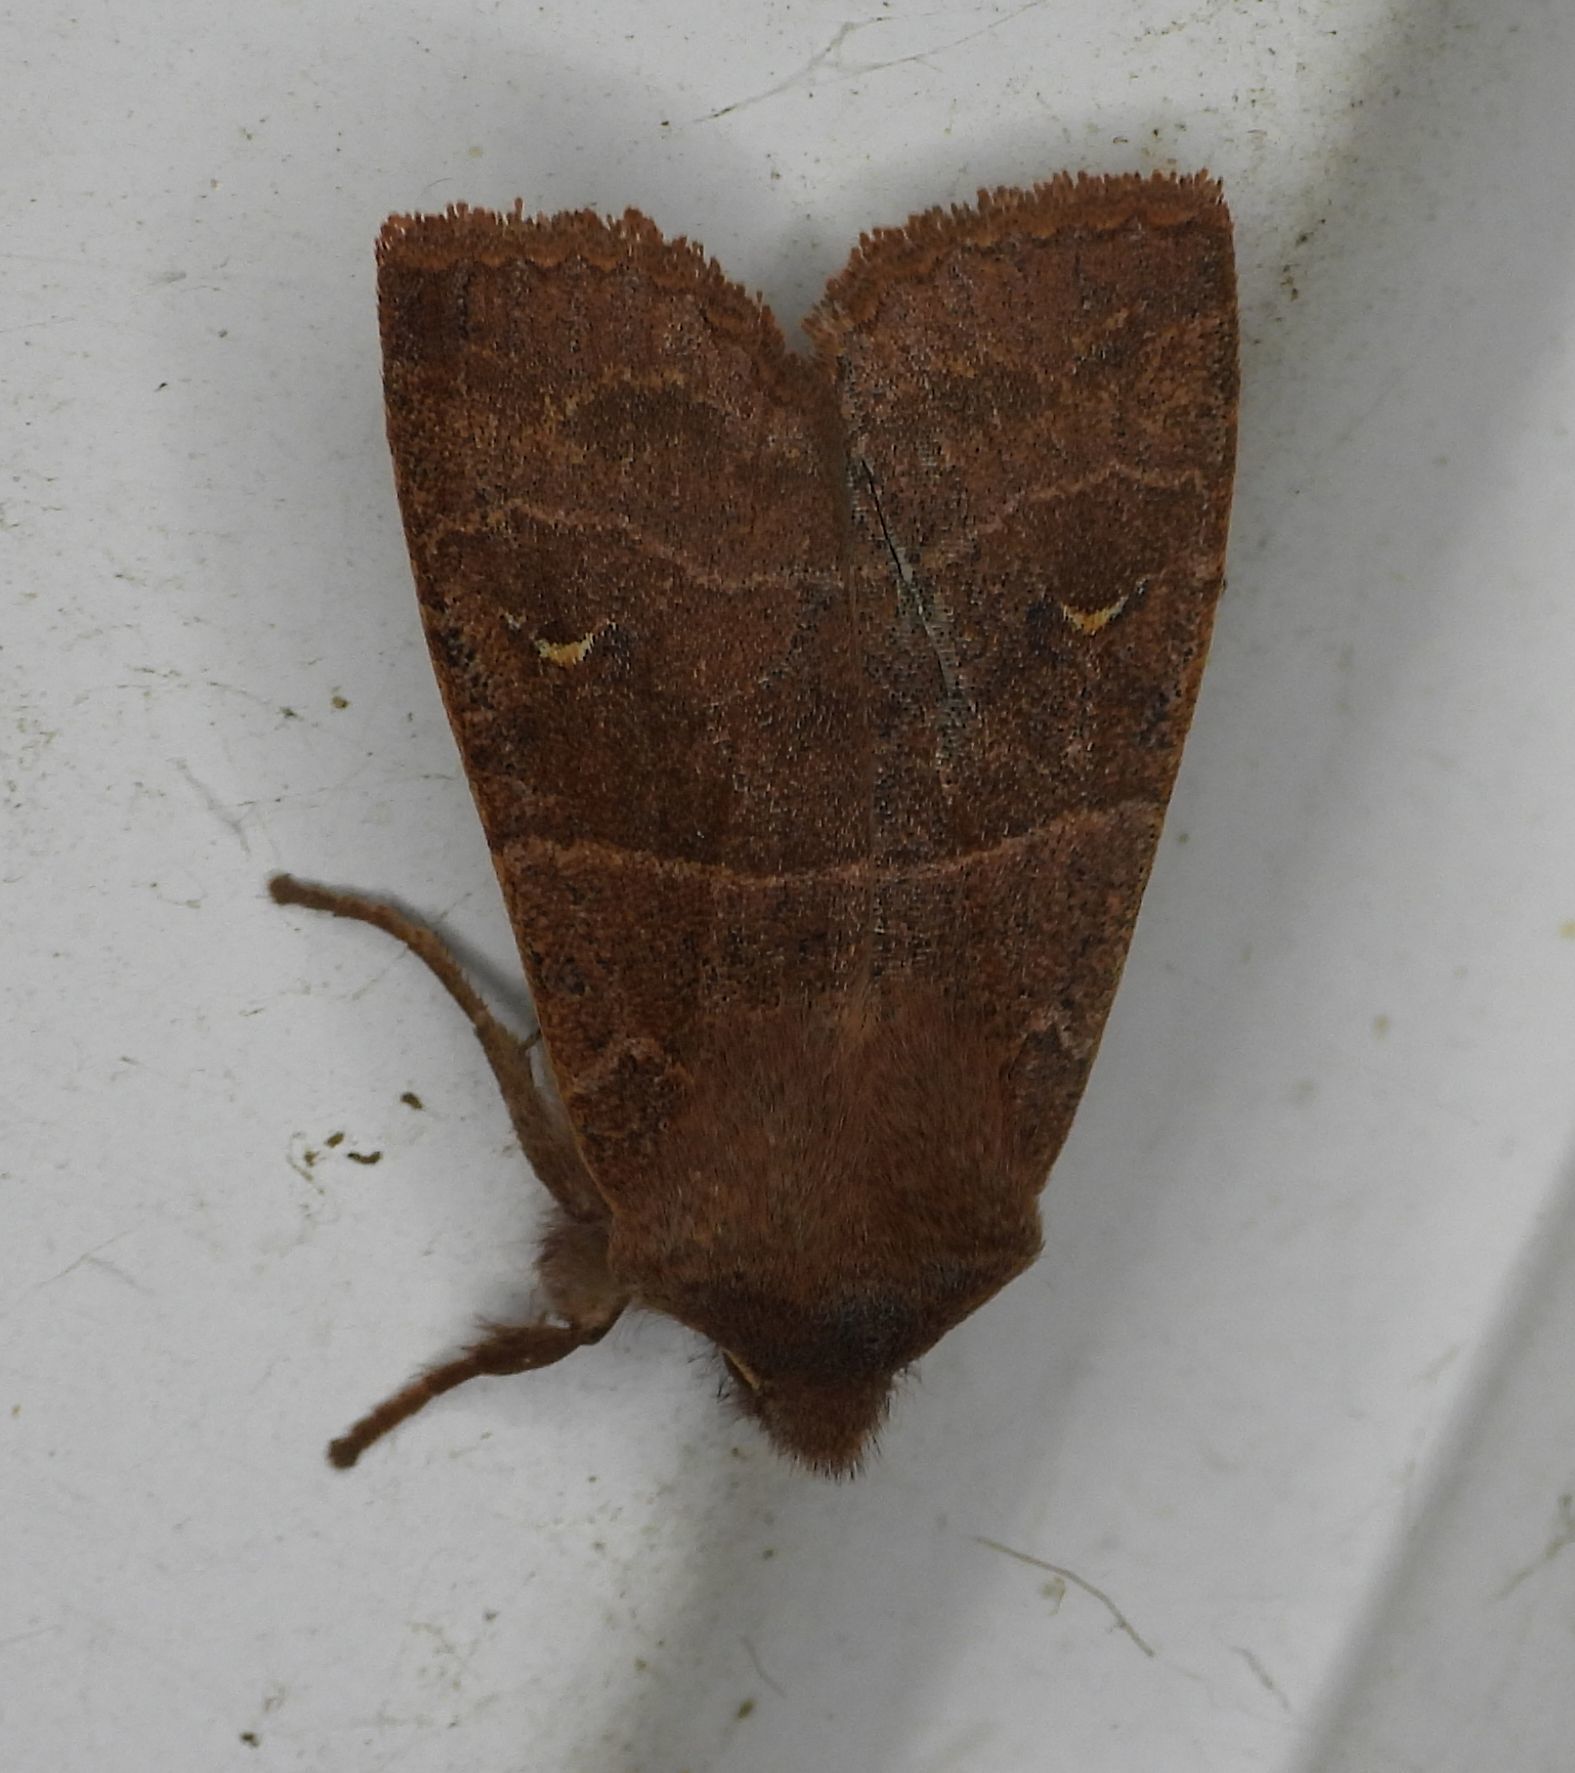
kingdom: Animalia
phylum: Arthropoda
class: Insecta
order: Lepidoptera
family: Noctuidae
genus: Eupsilia
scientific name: Eupsilia morrisoni
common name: Morrison's sallow
